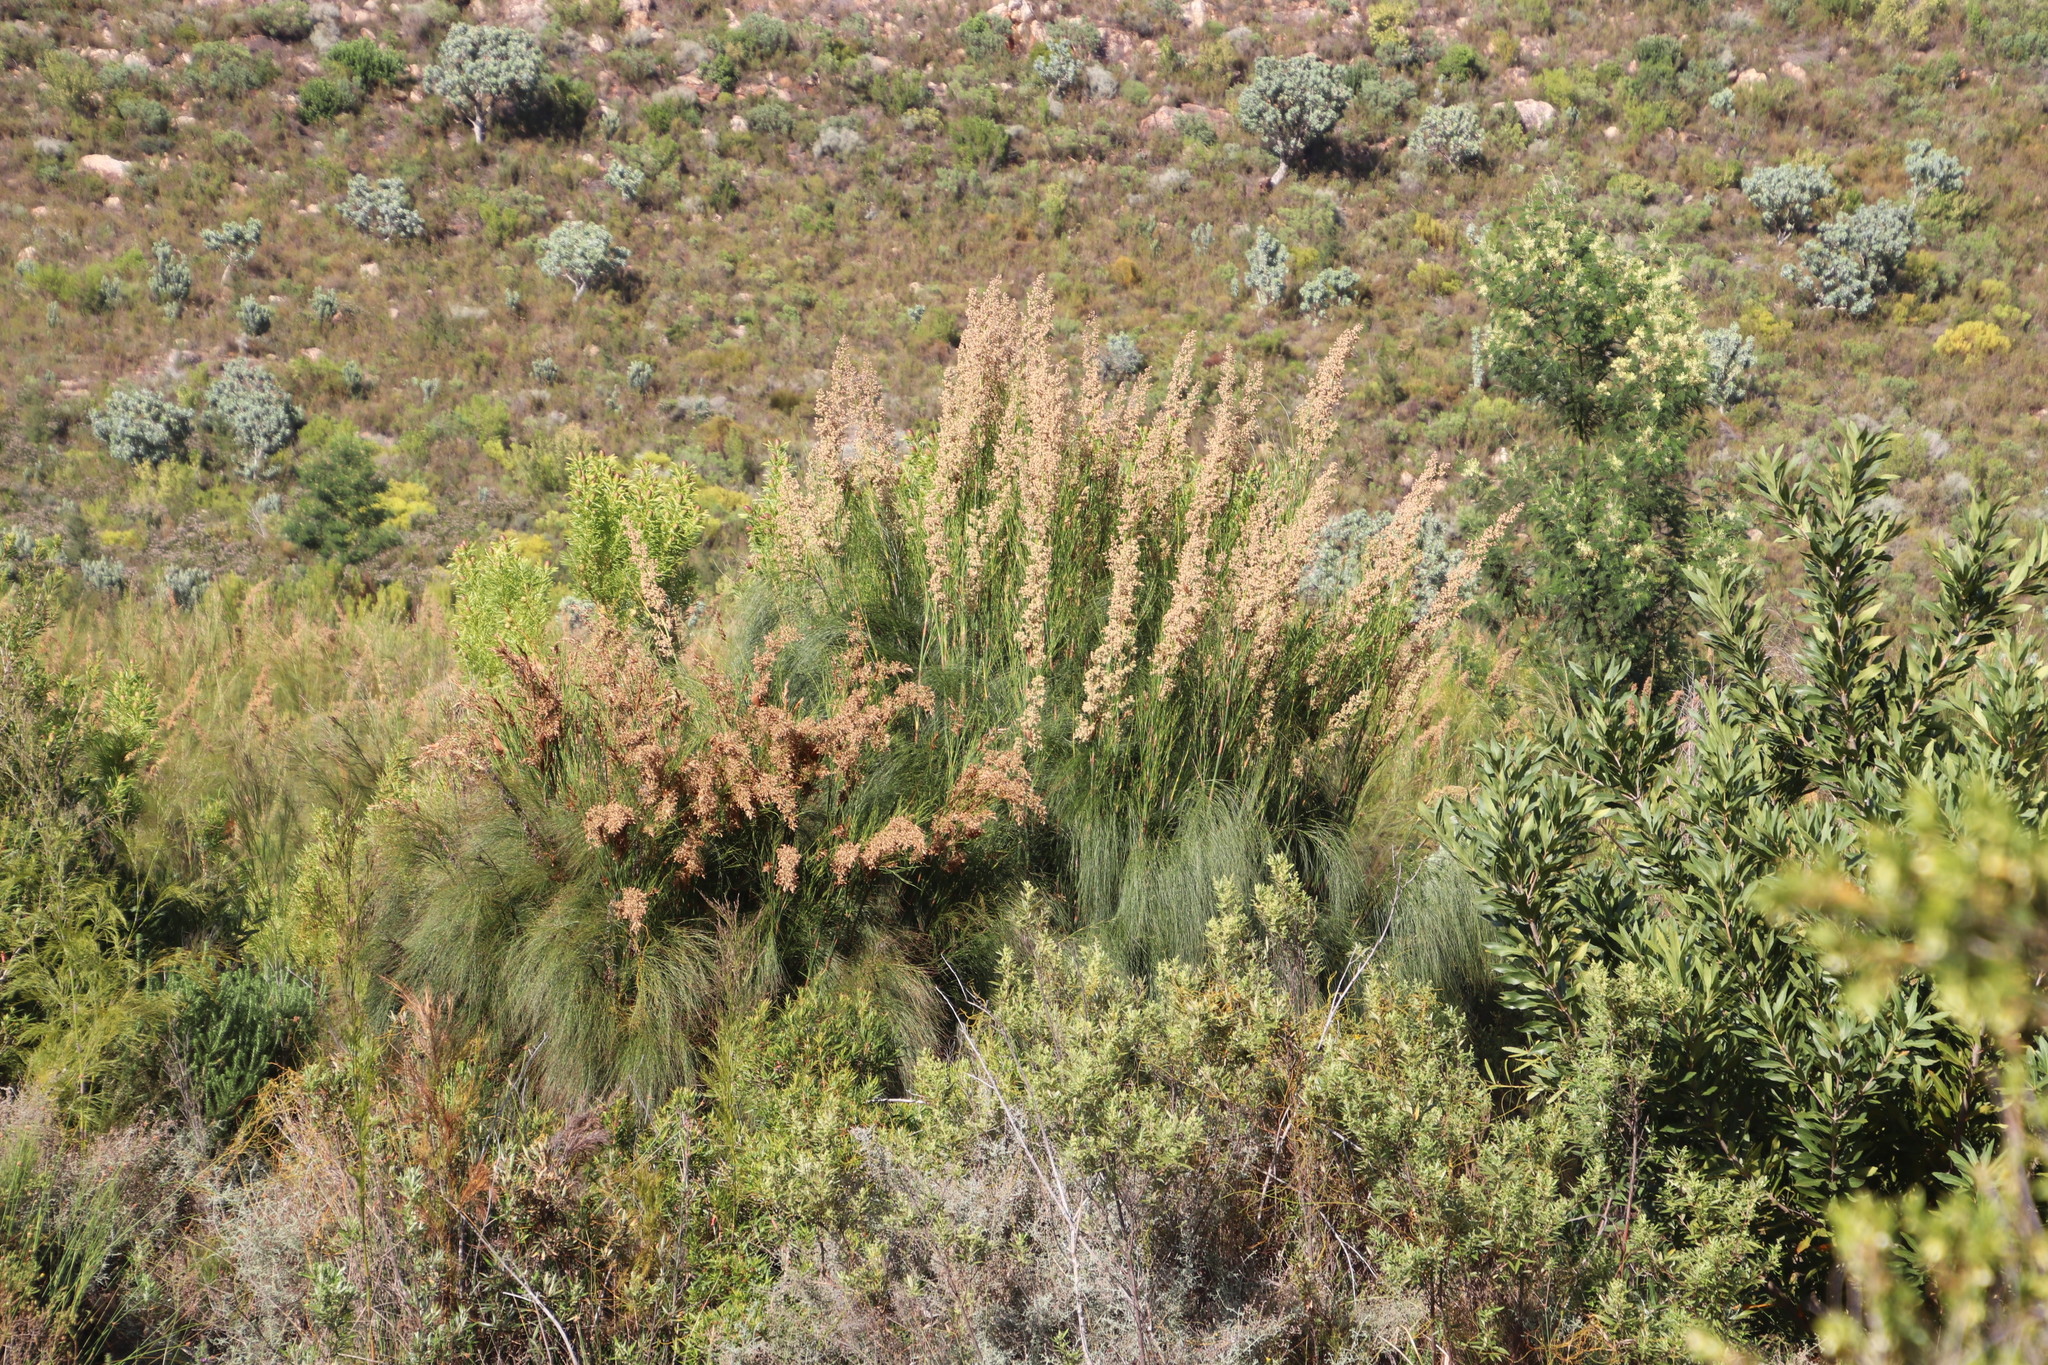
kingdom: Plantae
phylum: Tracheophyta
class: Liliopsida
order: Poales
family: Restionaceae
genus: Cannomois
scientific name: Cannomois grandis
